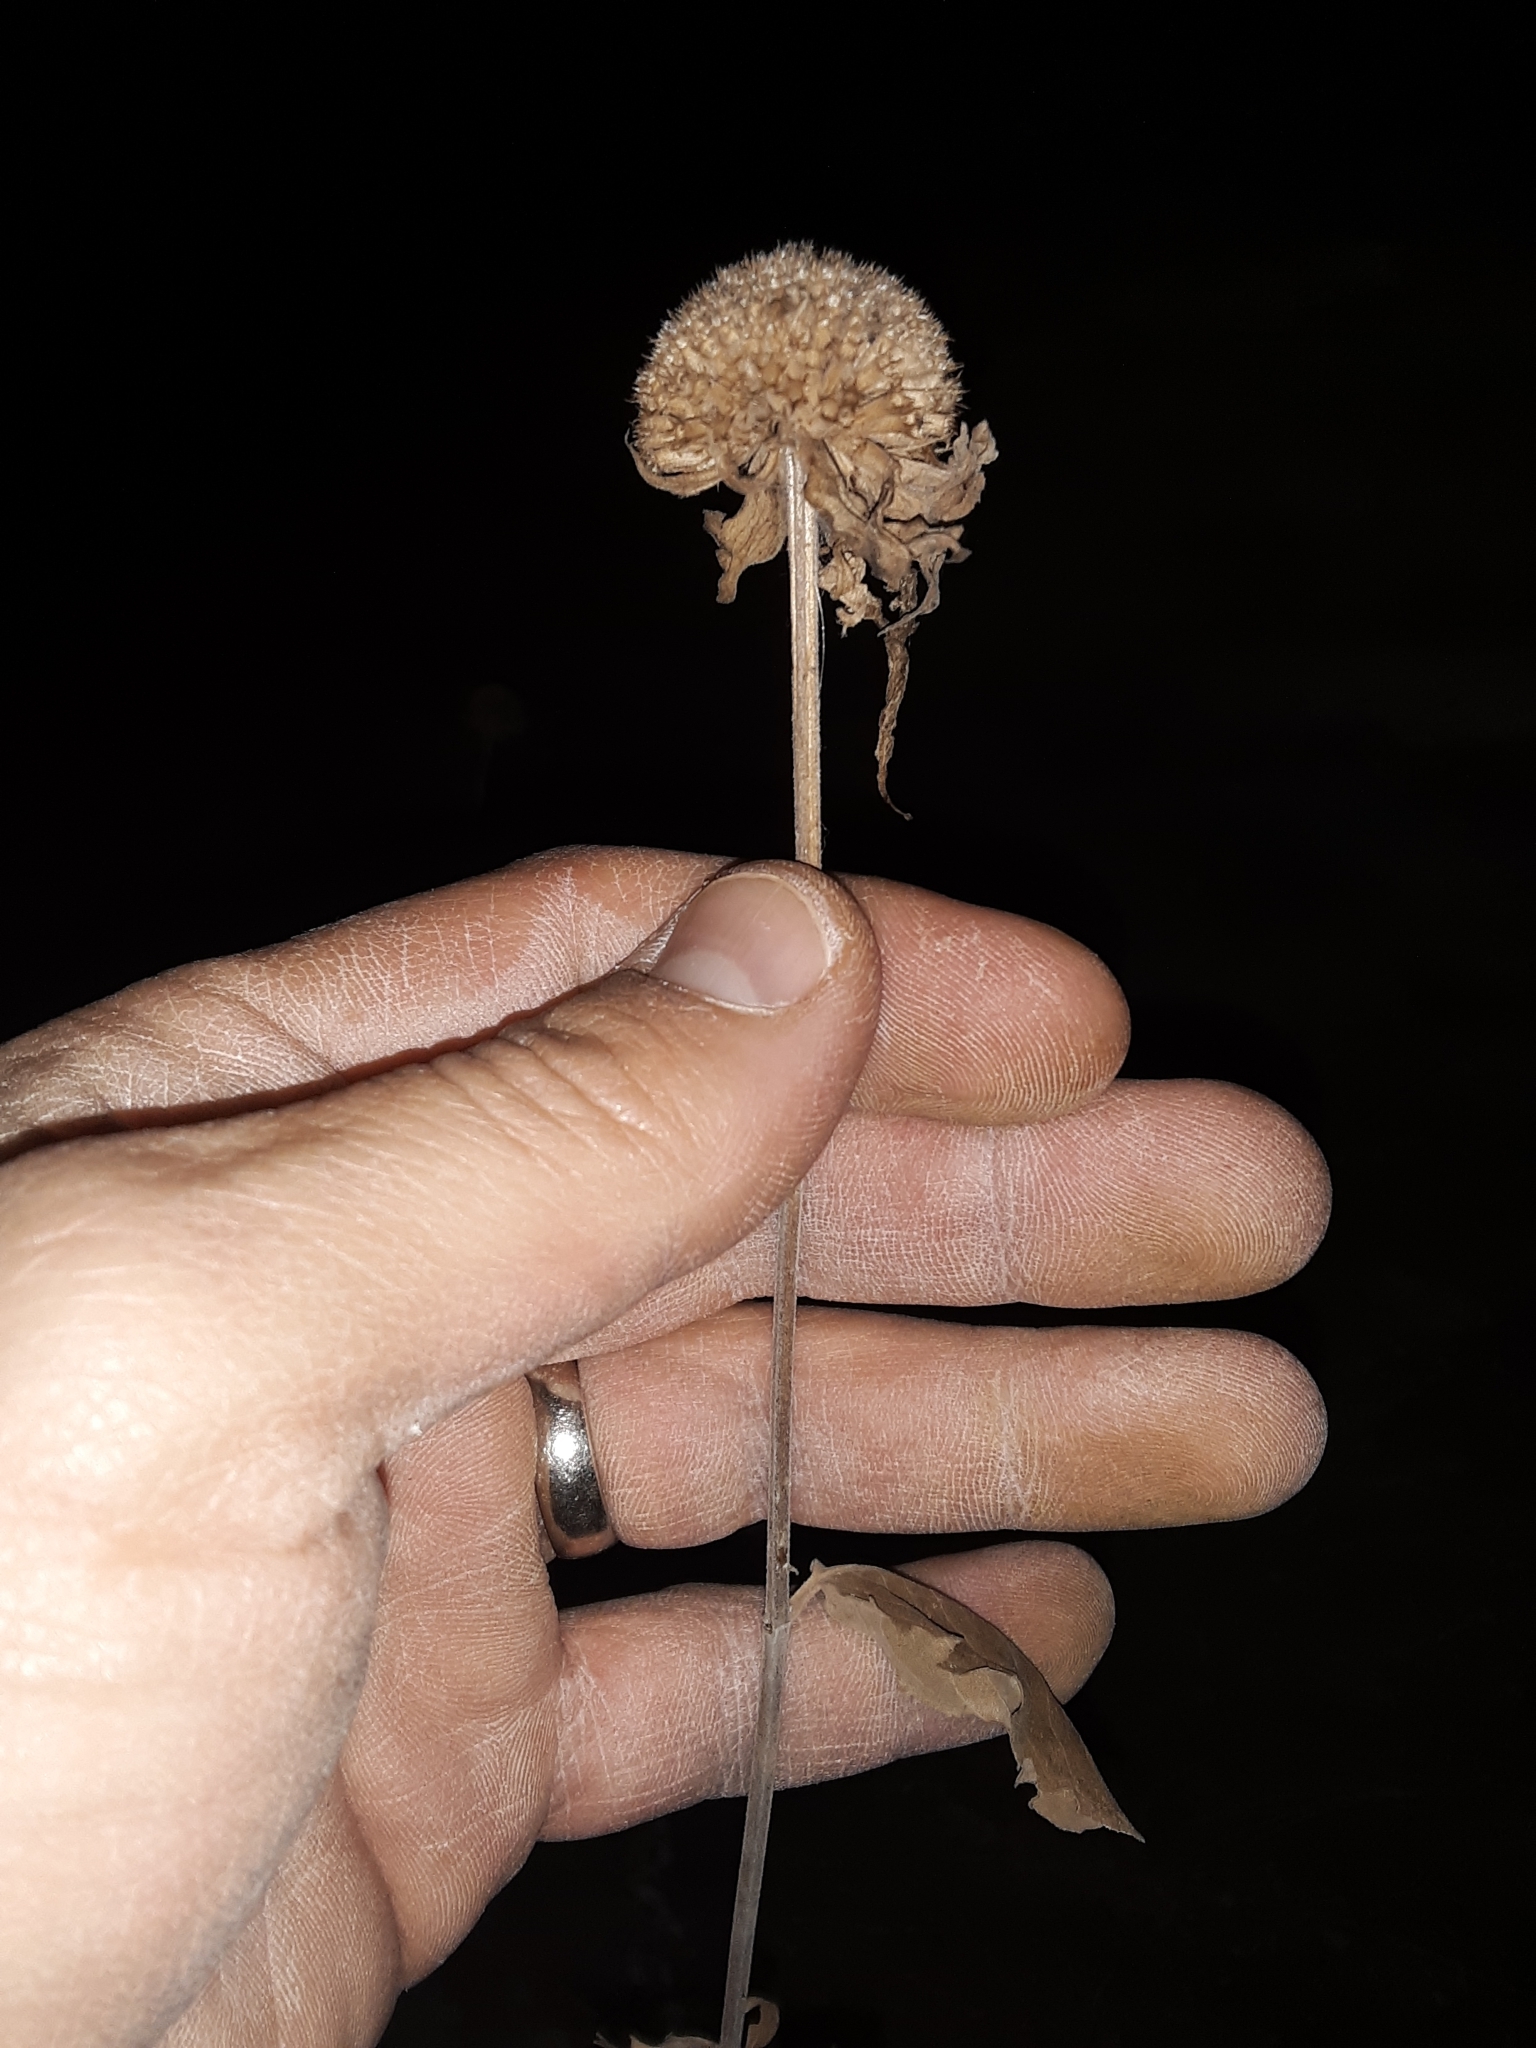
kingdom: Plantae
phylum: Tracheophyta
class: Magnoliopsida
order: Lamiales
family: Lamiaceae
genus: Monarda
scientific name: Monarda fistulosa
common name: Purple beebalm
